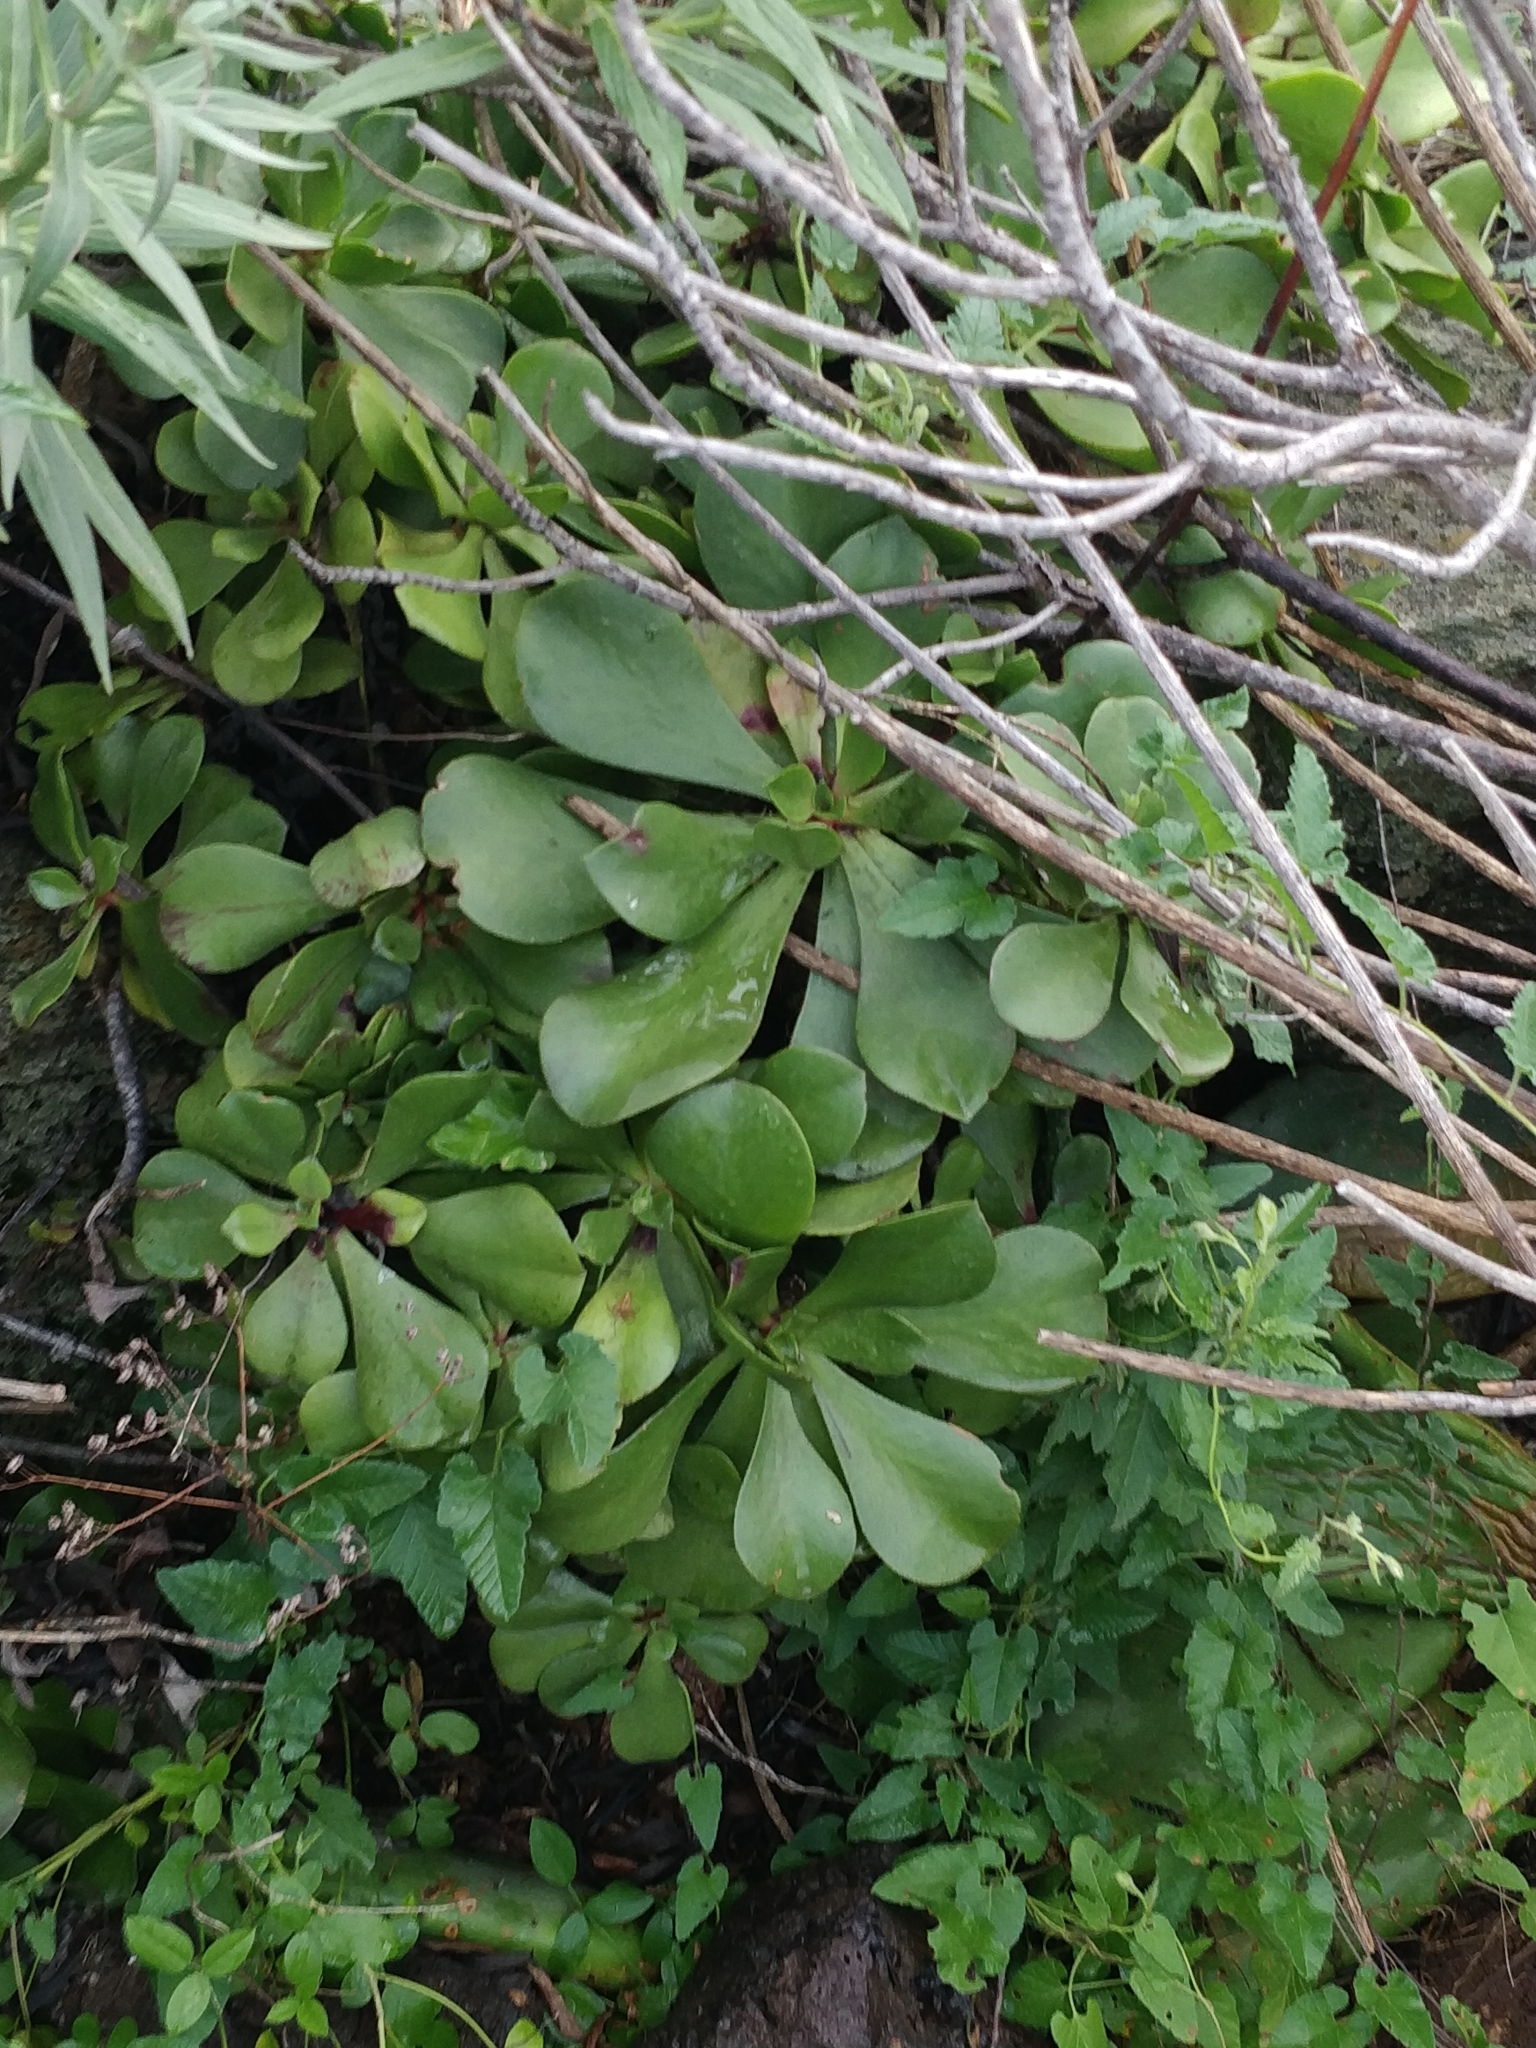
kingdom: Plantae
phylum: Tracheophyta
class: Magnoliopsida
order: Saxifragales
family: Crassulaceae
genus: Aeonium
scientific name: Aeonium glutinosum
